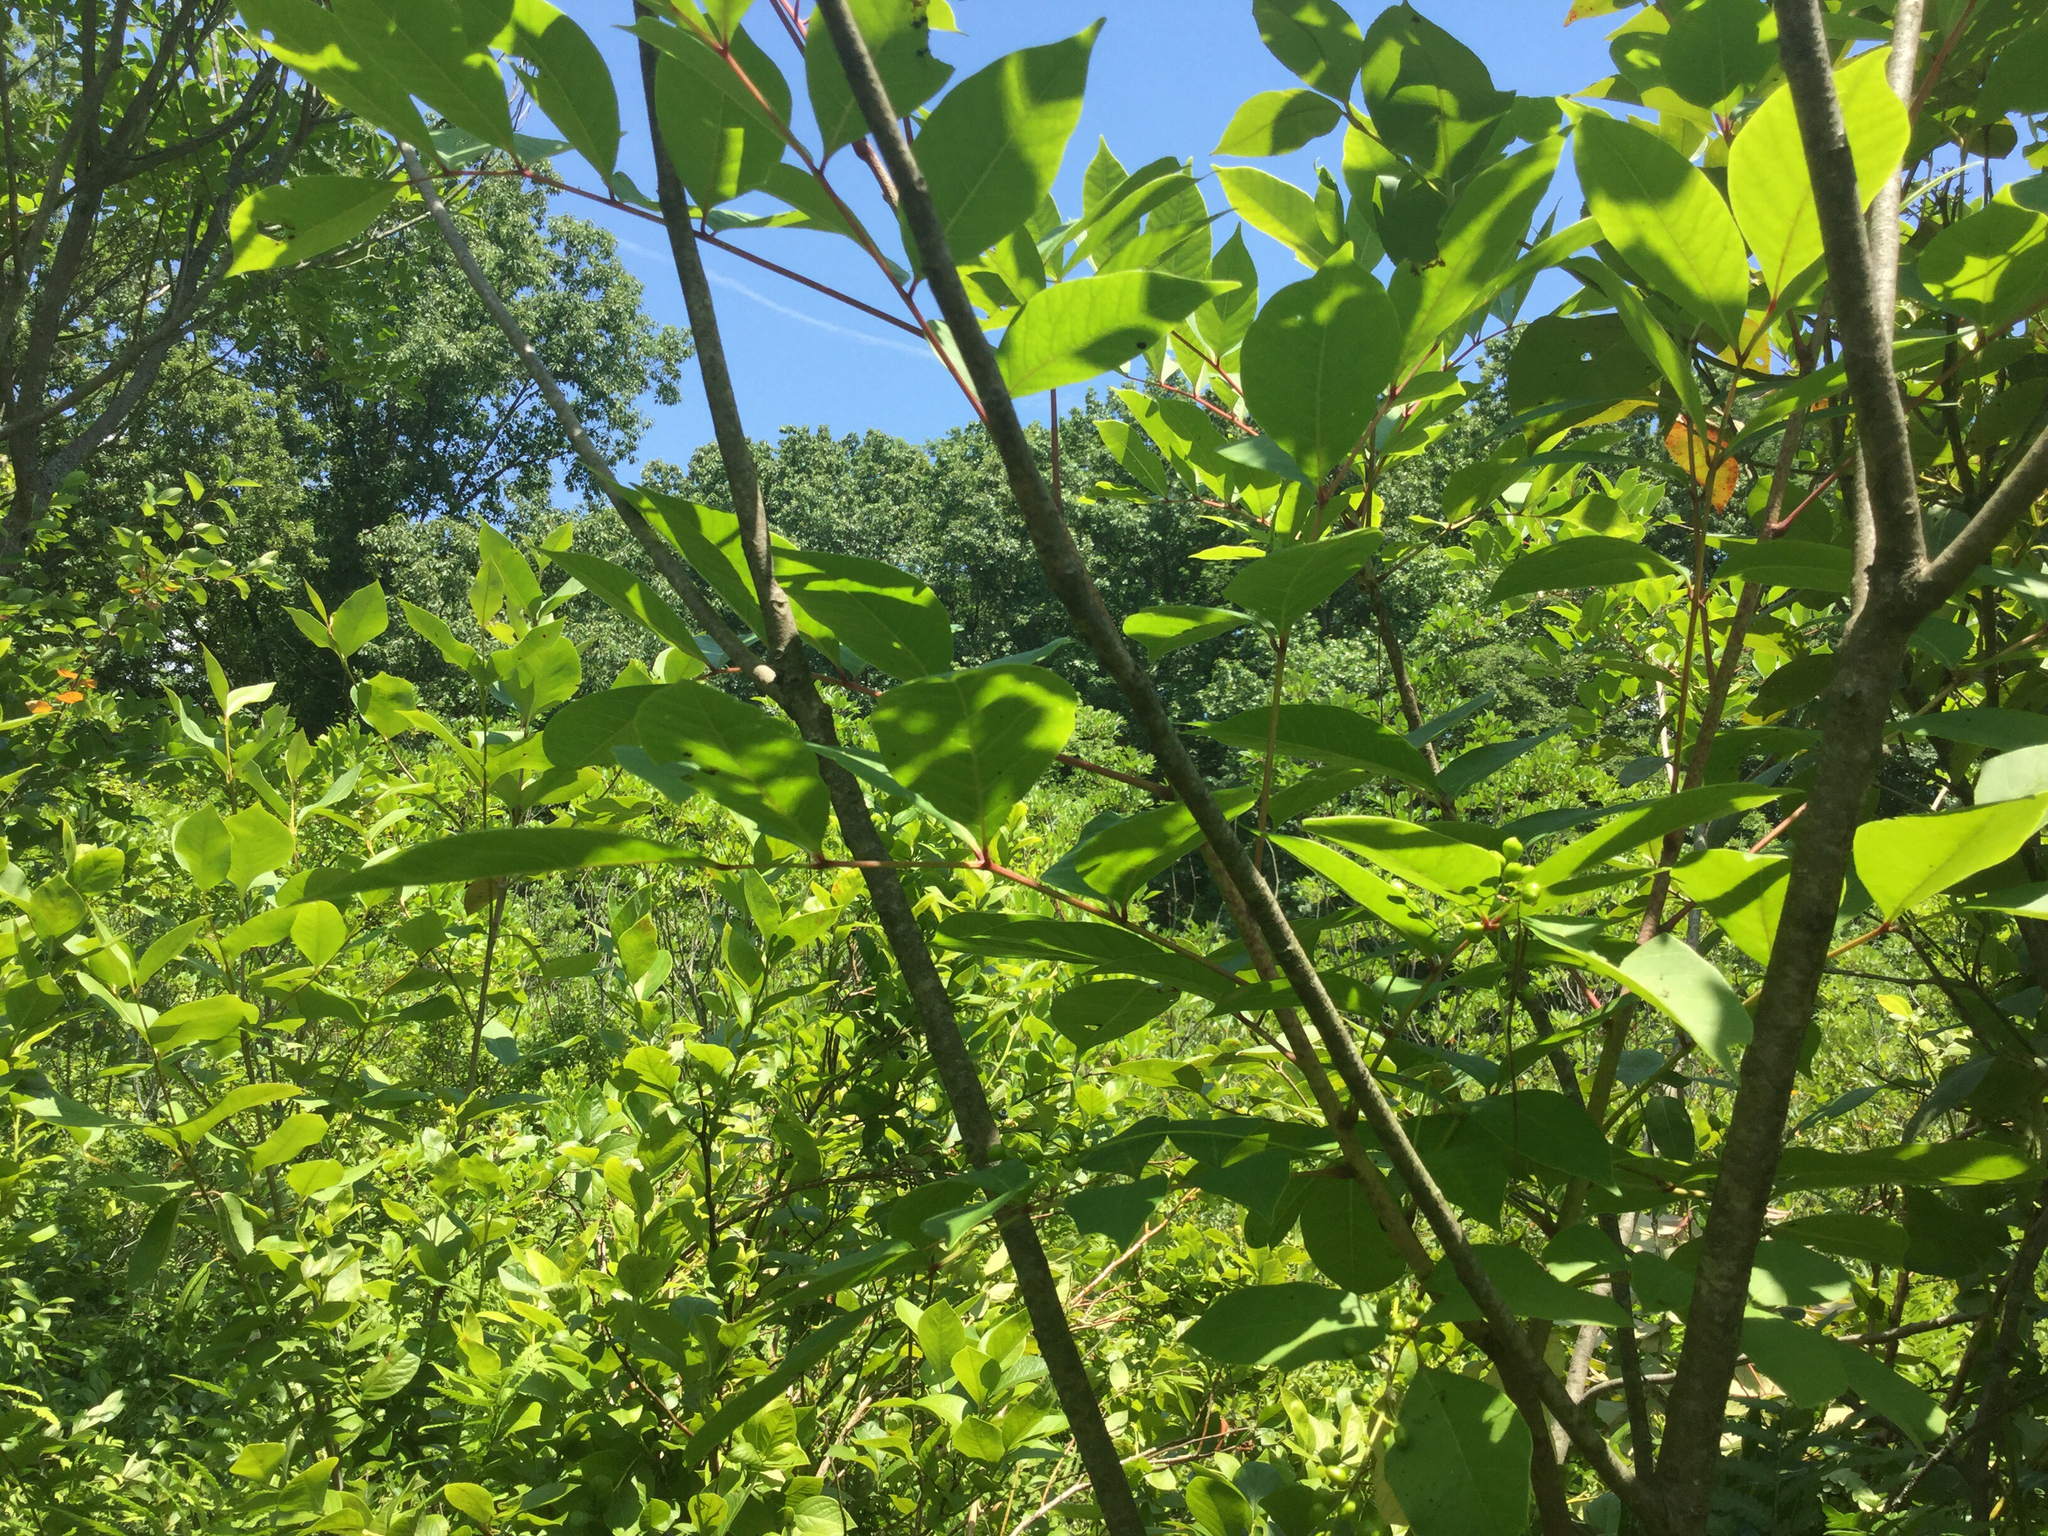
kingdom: Plantae
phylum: Tracheophyta
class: Magnoliopsida
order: Sapindales
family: Anacardiaceae
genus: Toxicodendron
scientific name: Toxicodendron vernix
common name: Poison sumac
